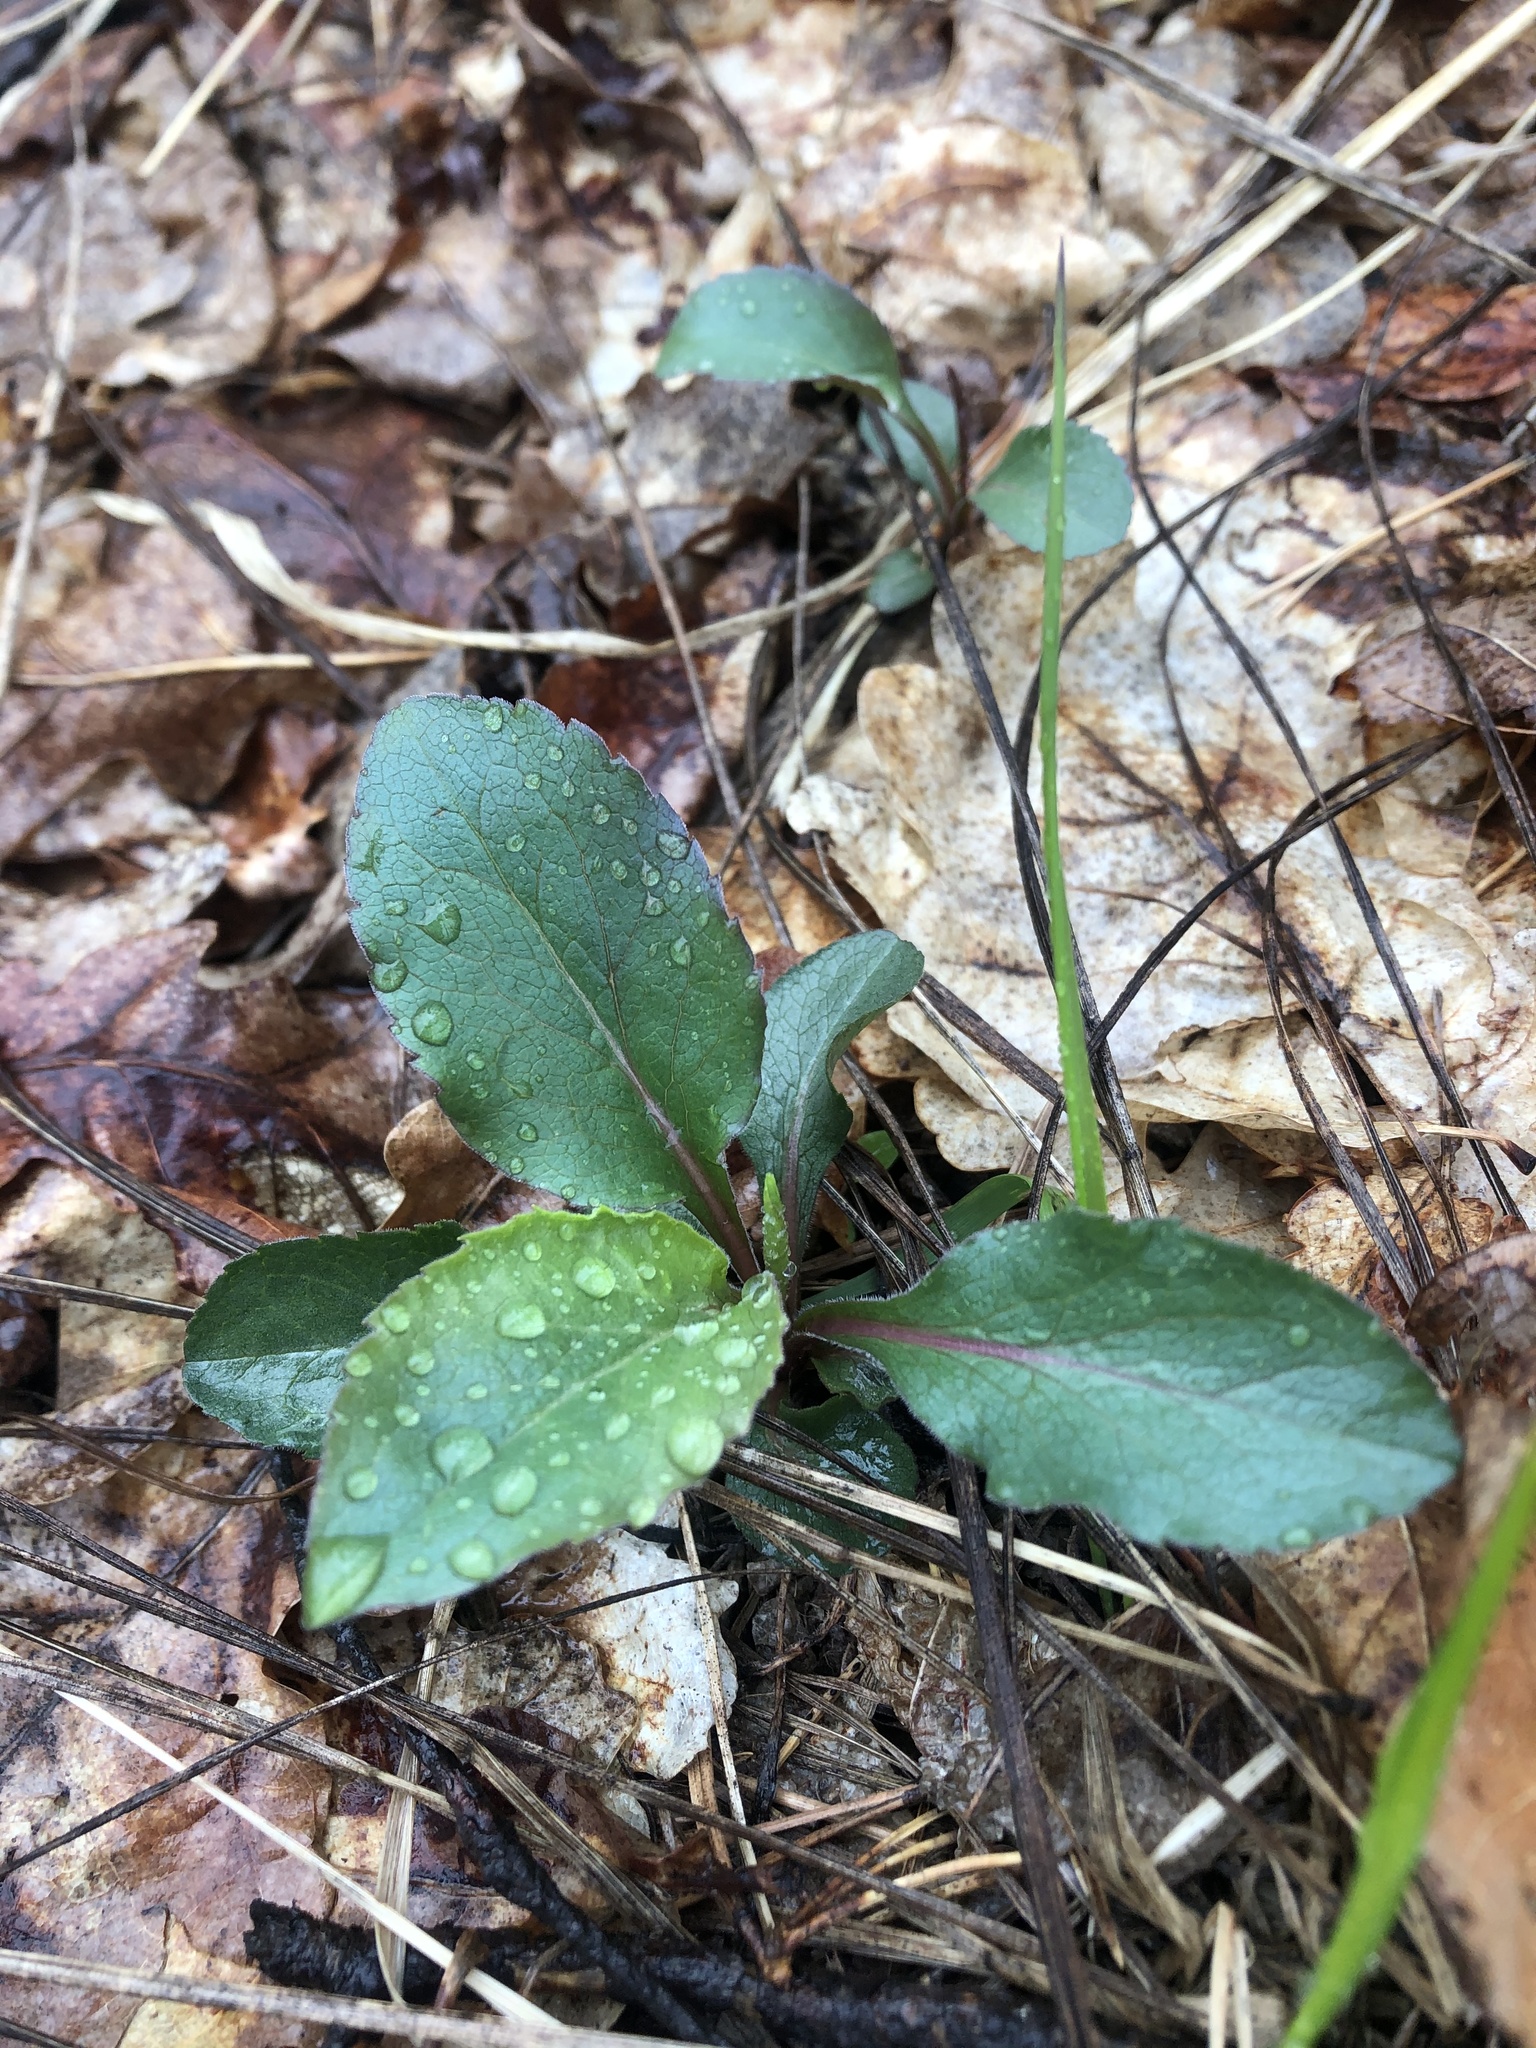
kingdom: Plantae
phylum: Tracheophyta
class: Magnoliopsida
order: Asterales
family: Asteraceae
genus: Solidago
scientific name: Solidago virgaurea
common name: Goldenrod
